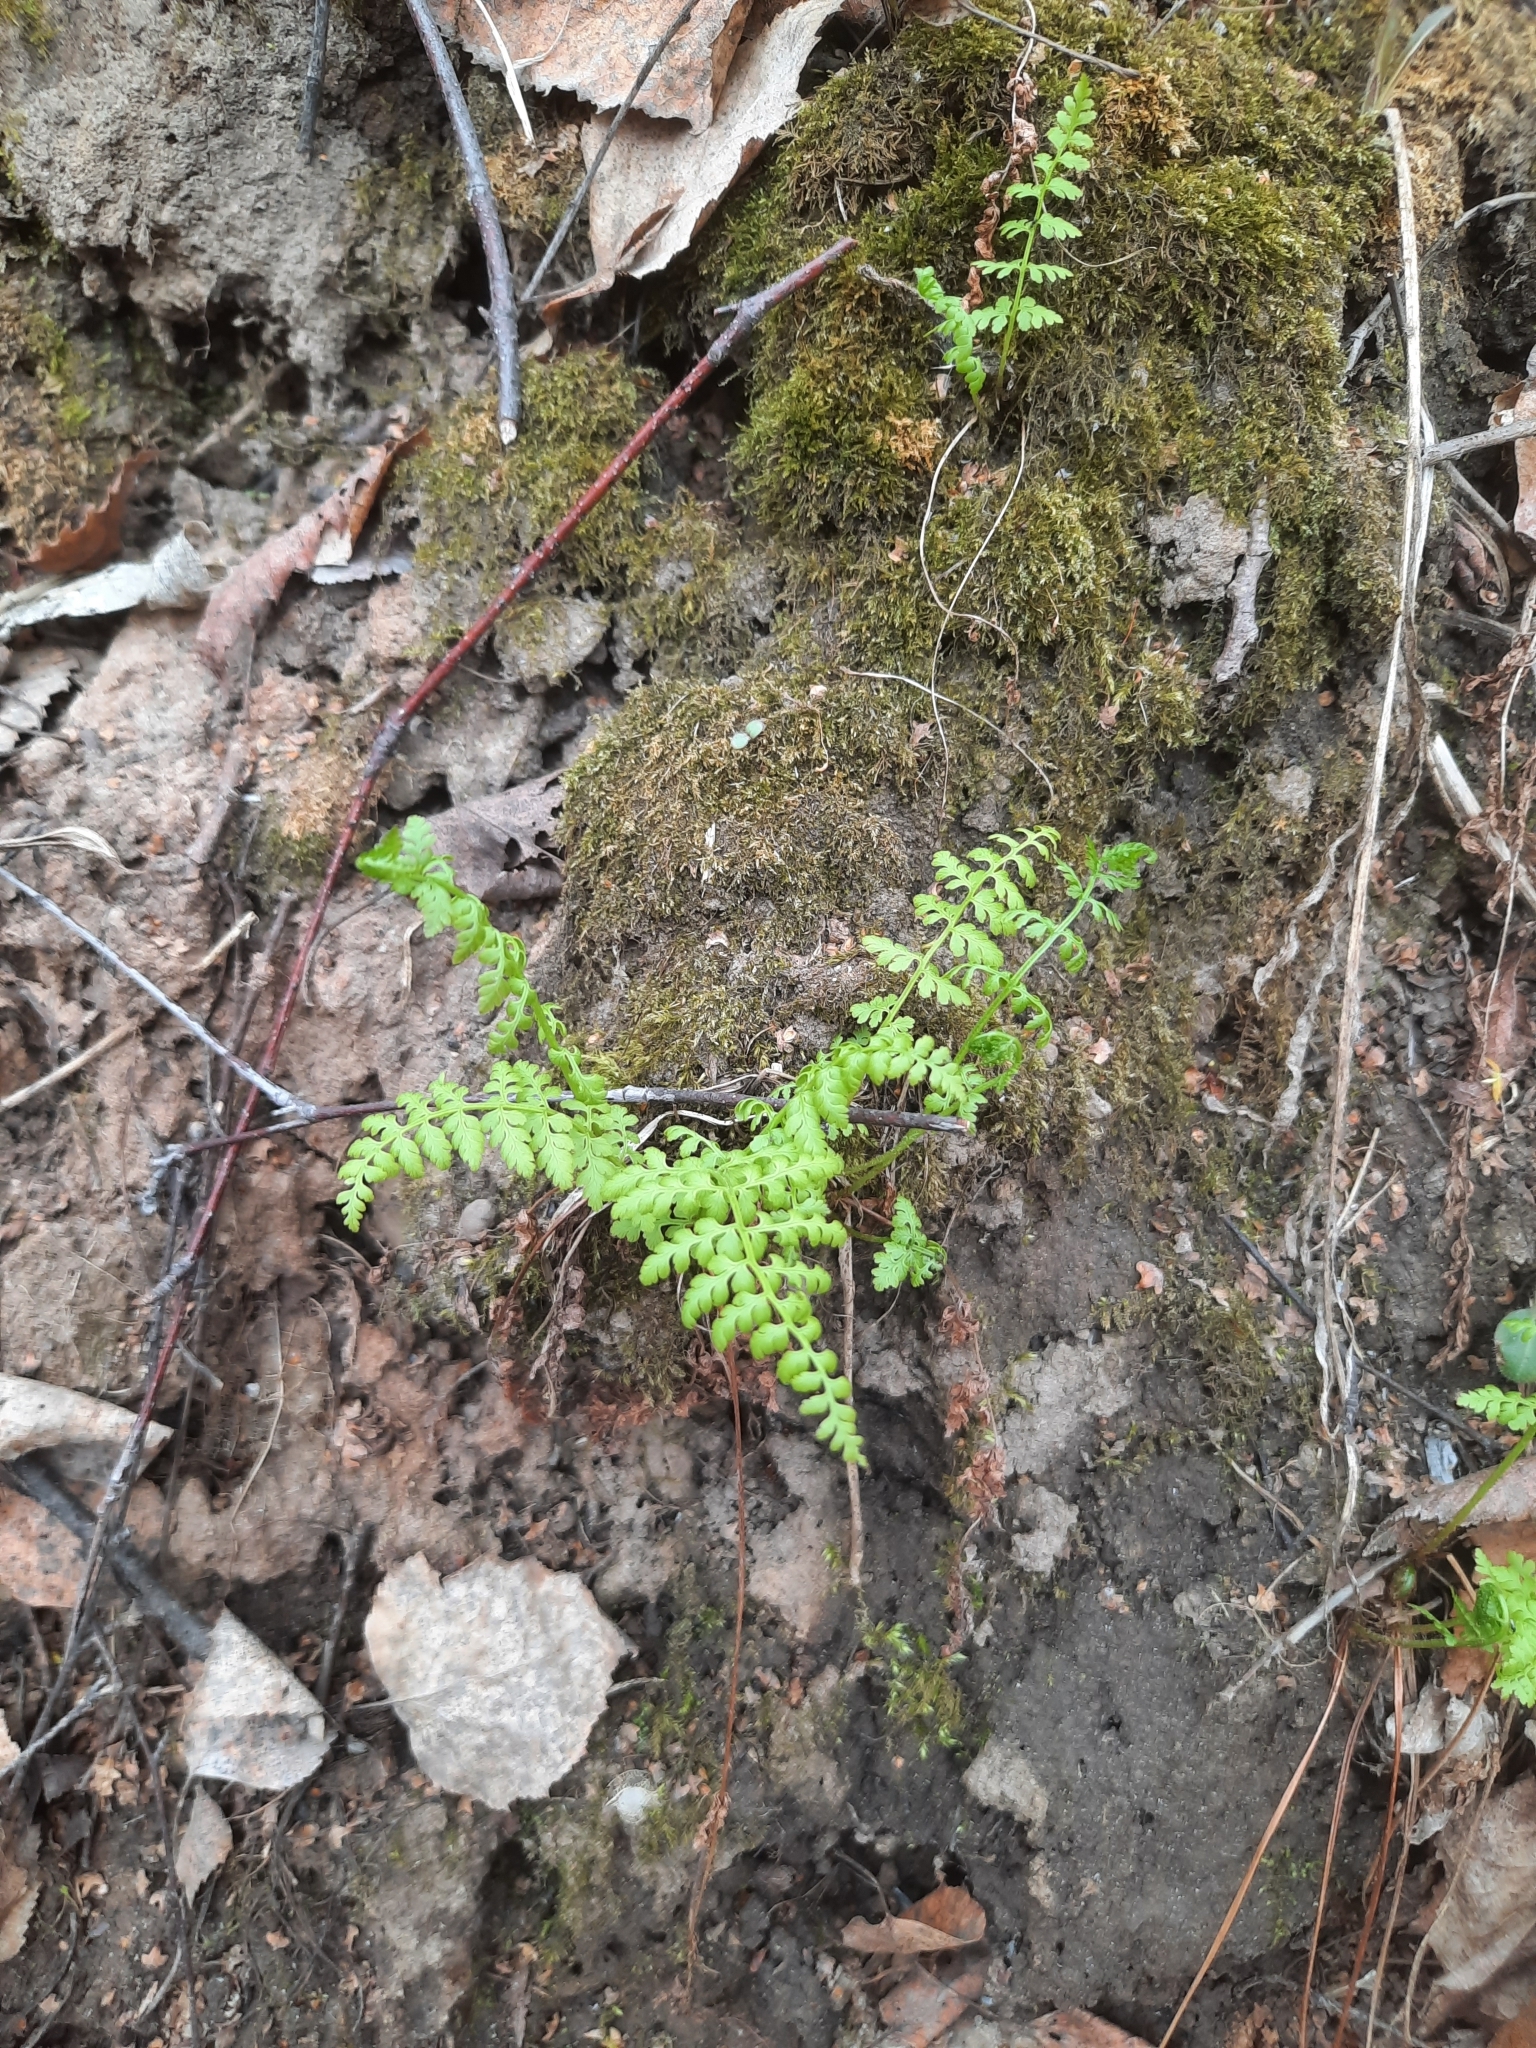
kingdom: Plantae
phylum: Tracheophyta
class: Polypodiopsida
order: Polypodiales
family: Cystopteridaceae
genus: Cystopteris
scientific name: Cystopteris fragilis
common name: Brittle bladder fern
